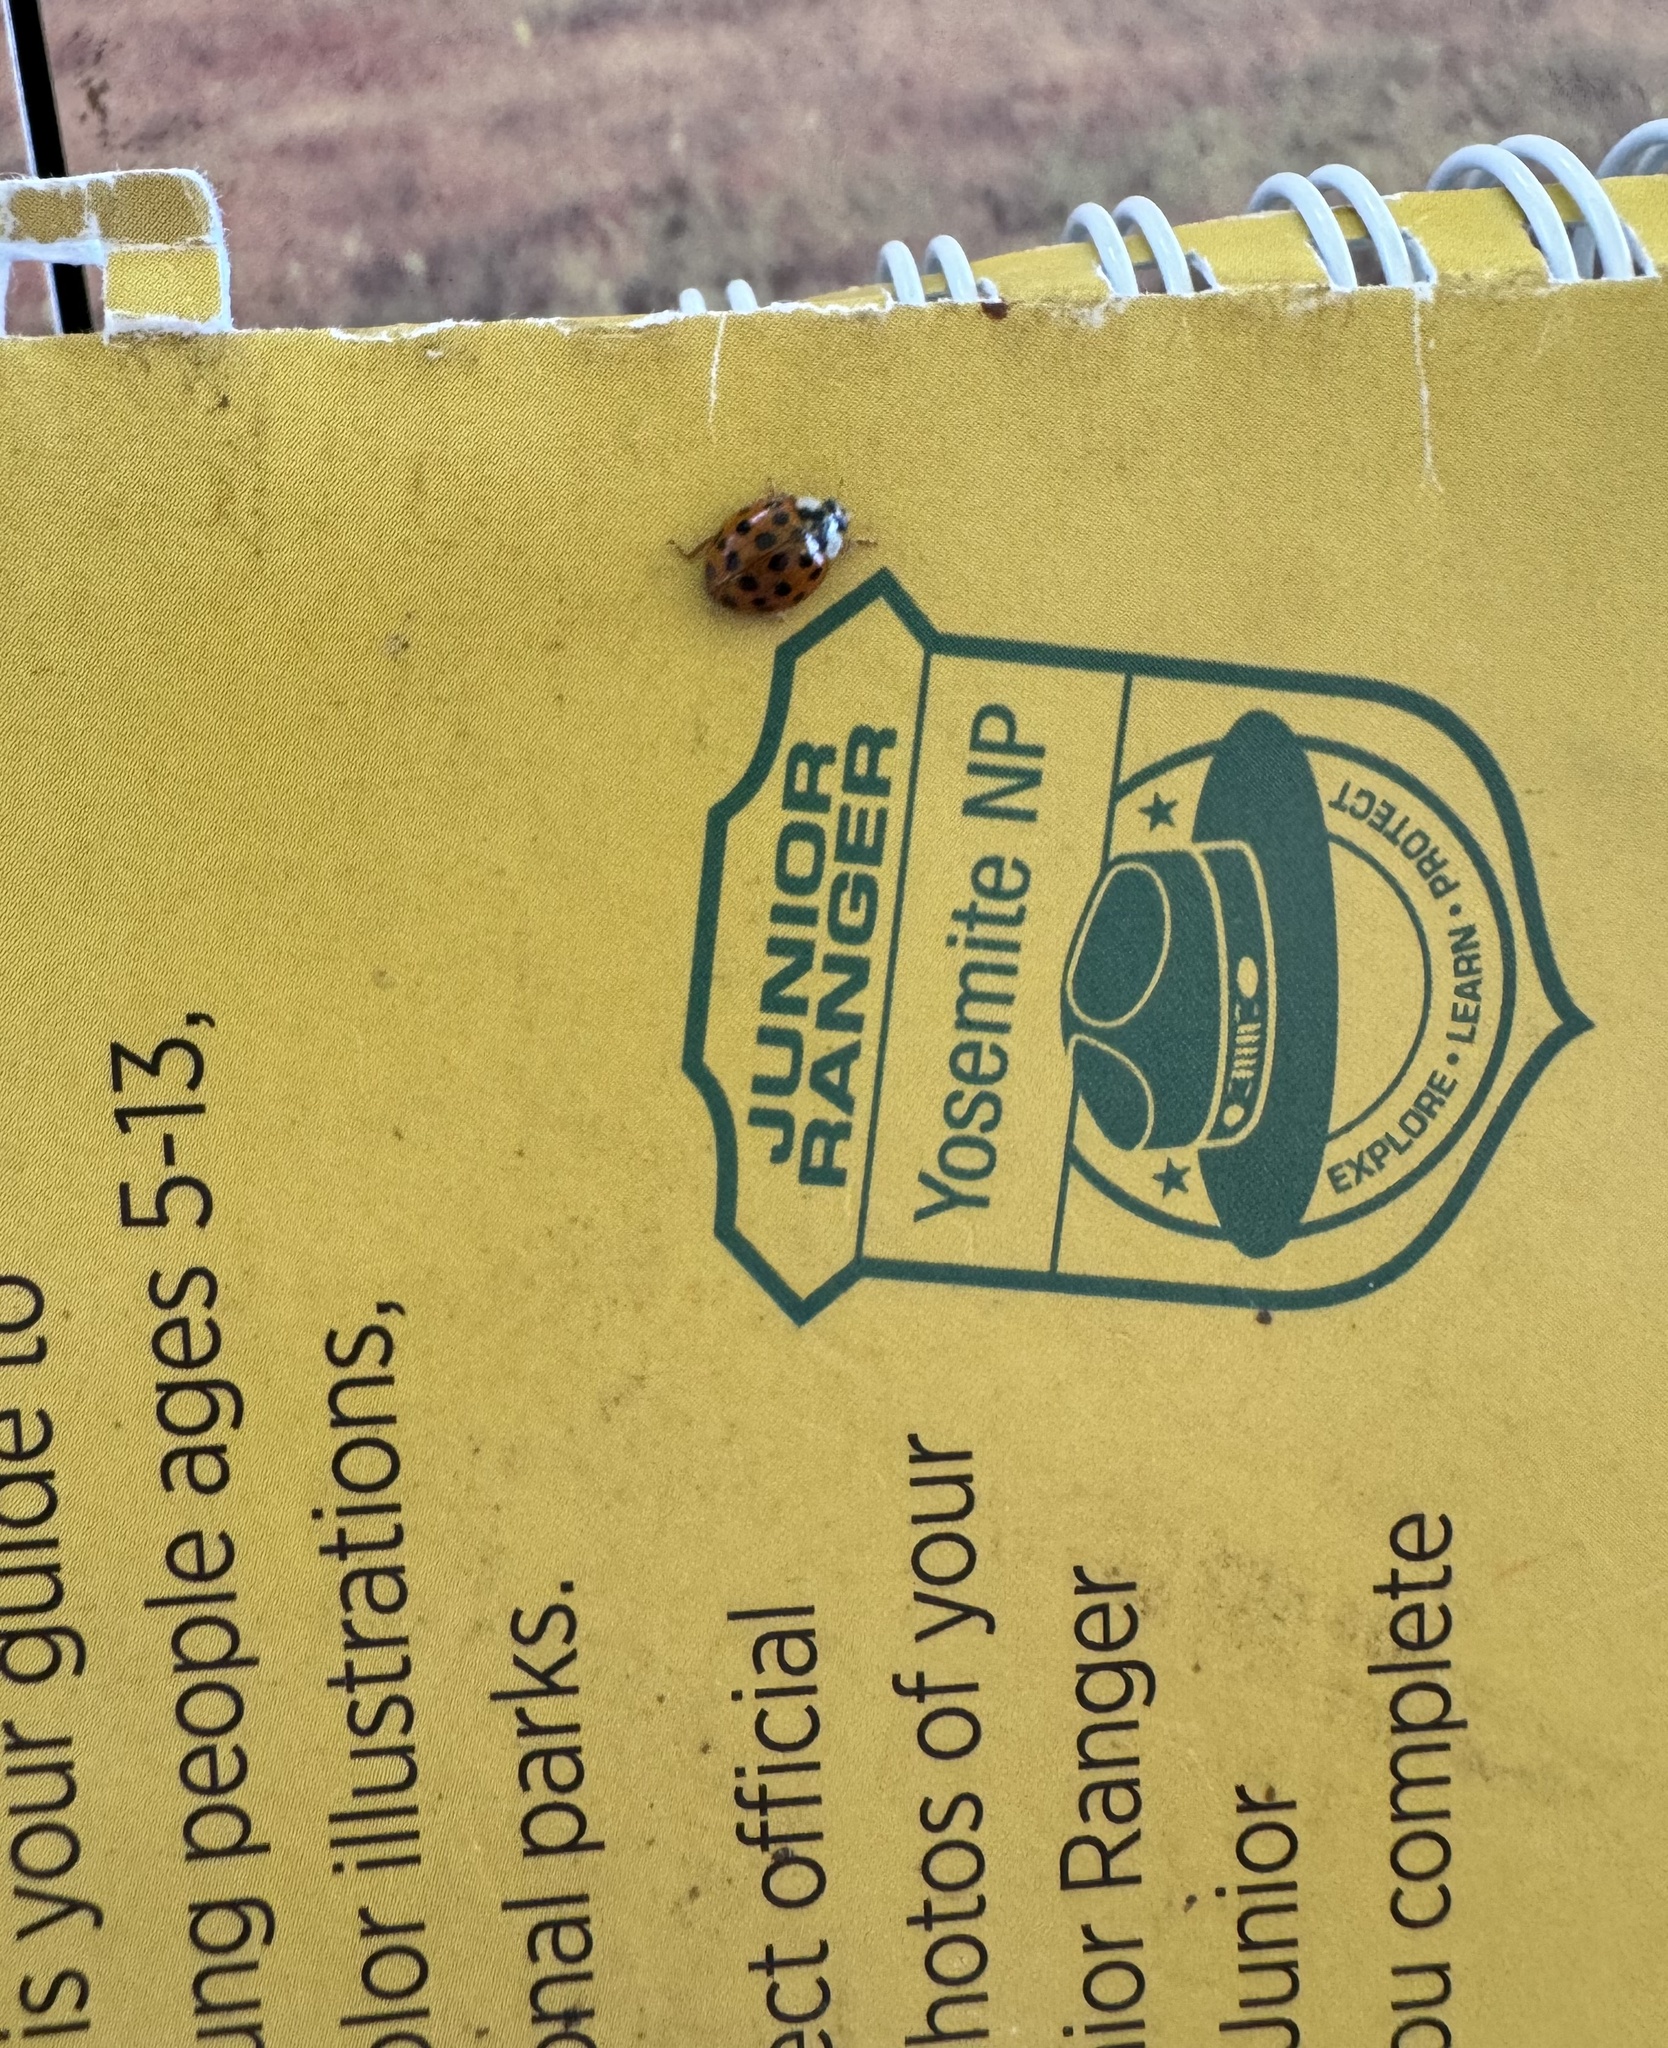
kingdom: Animalia
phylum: Arthropoda
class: Insecta
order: Coleoptera
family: Coccinellidae
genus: Harmonia
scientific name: Harmonia axyridis
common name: Harlequin ladybird
